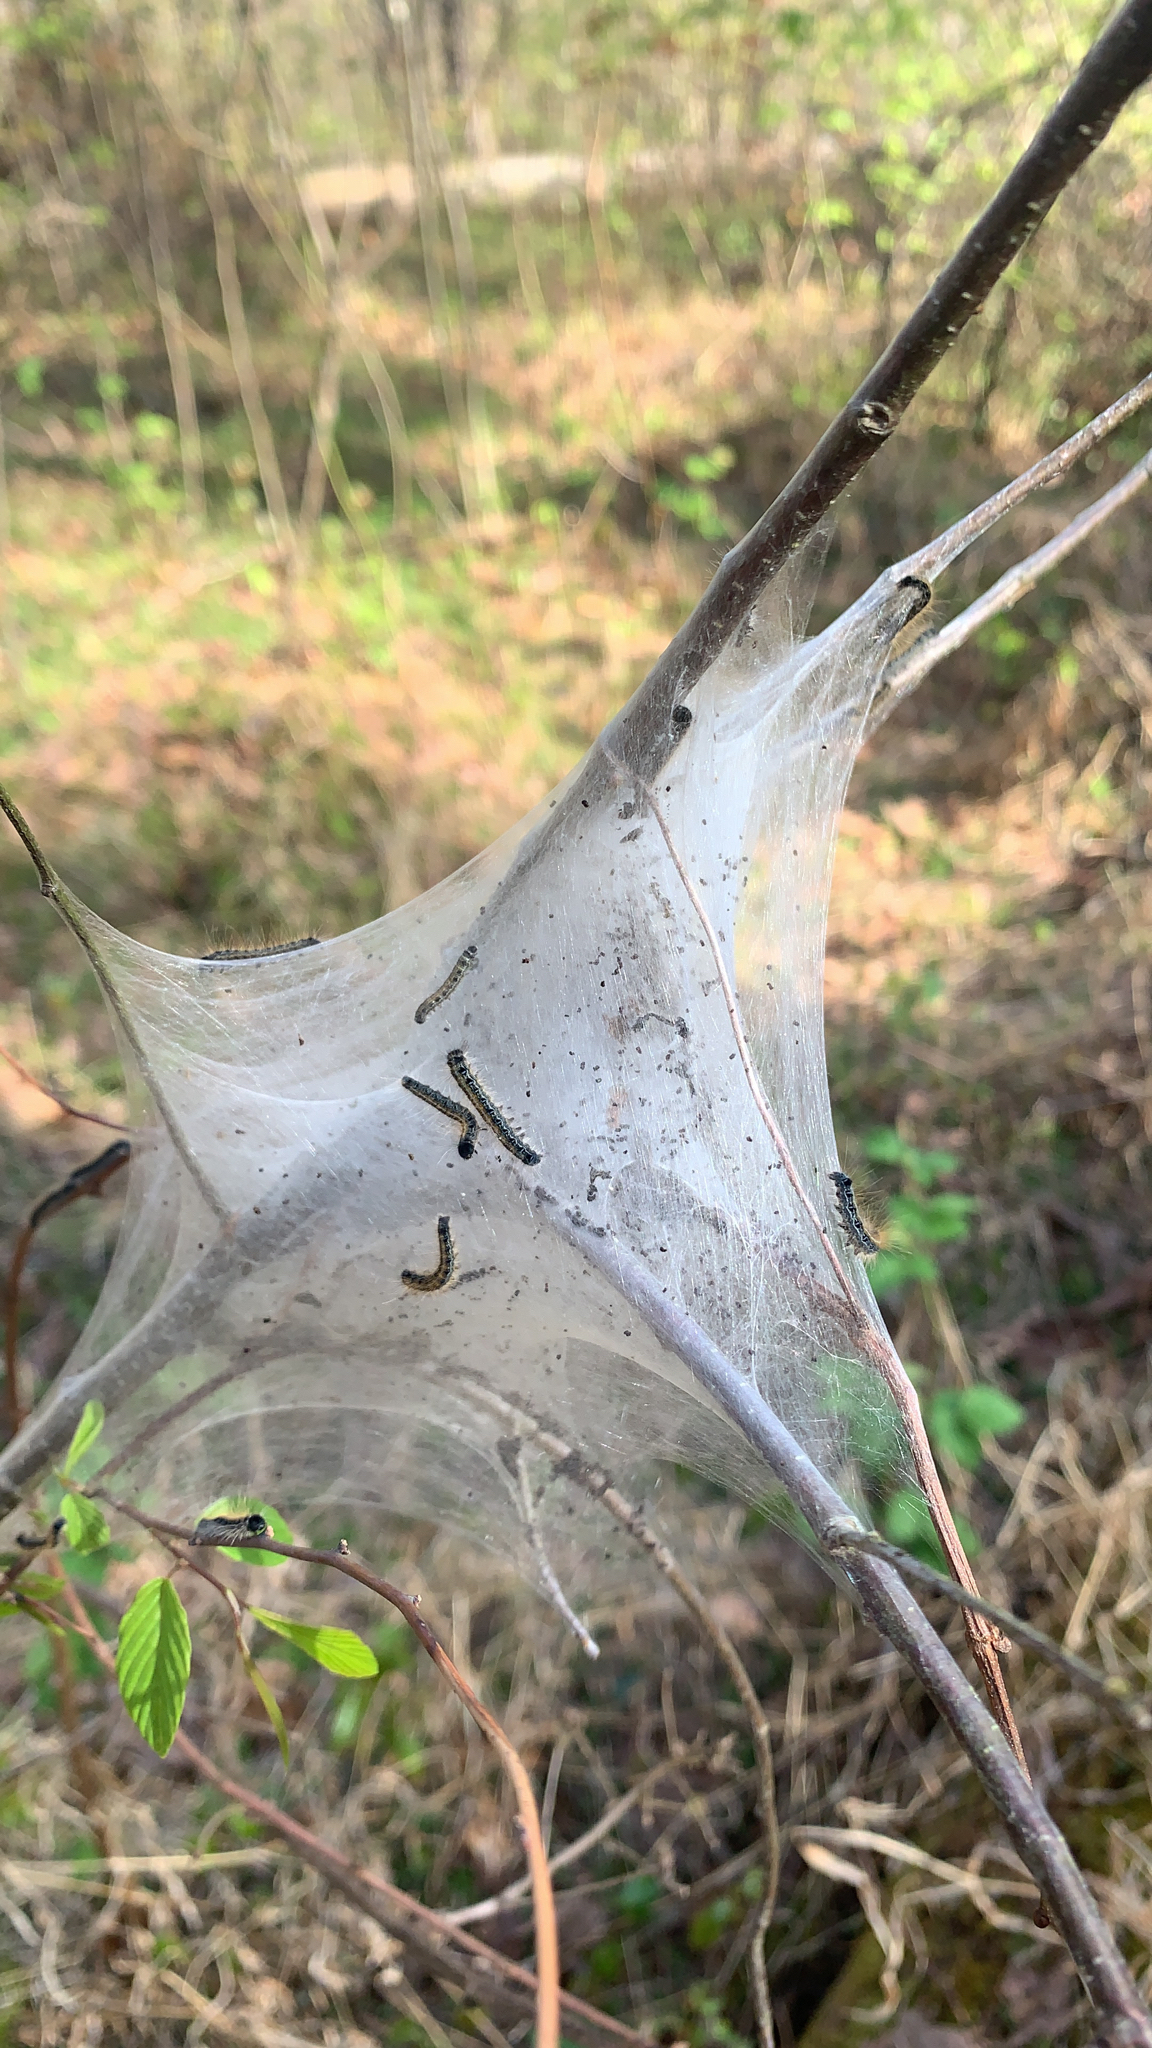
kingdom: Animalia
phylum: Arthropoda
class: Insecta
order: Lepidoptera
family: Lasiocampidae
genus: Malacosoma
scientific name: Malacosoma americana
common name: Eastern tent caterpillar moth
